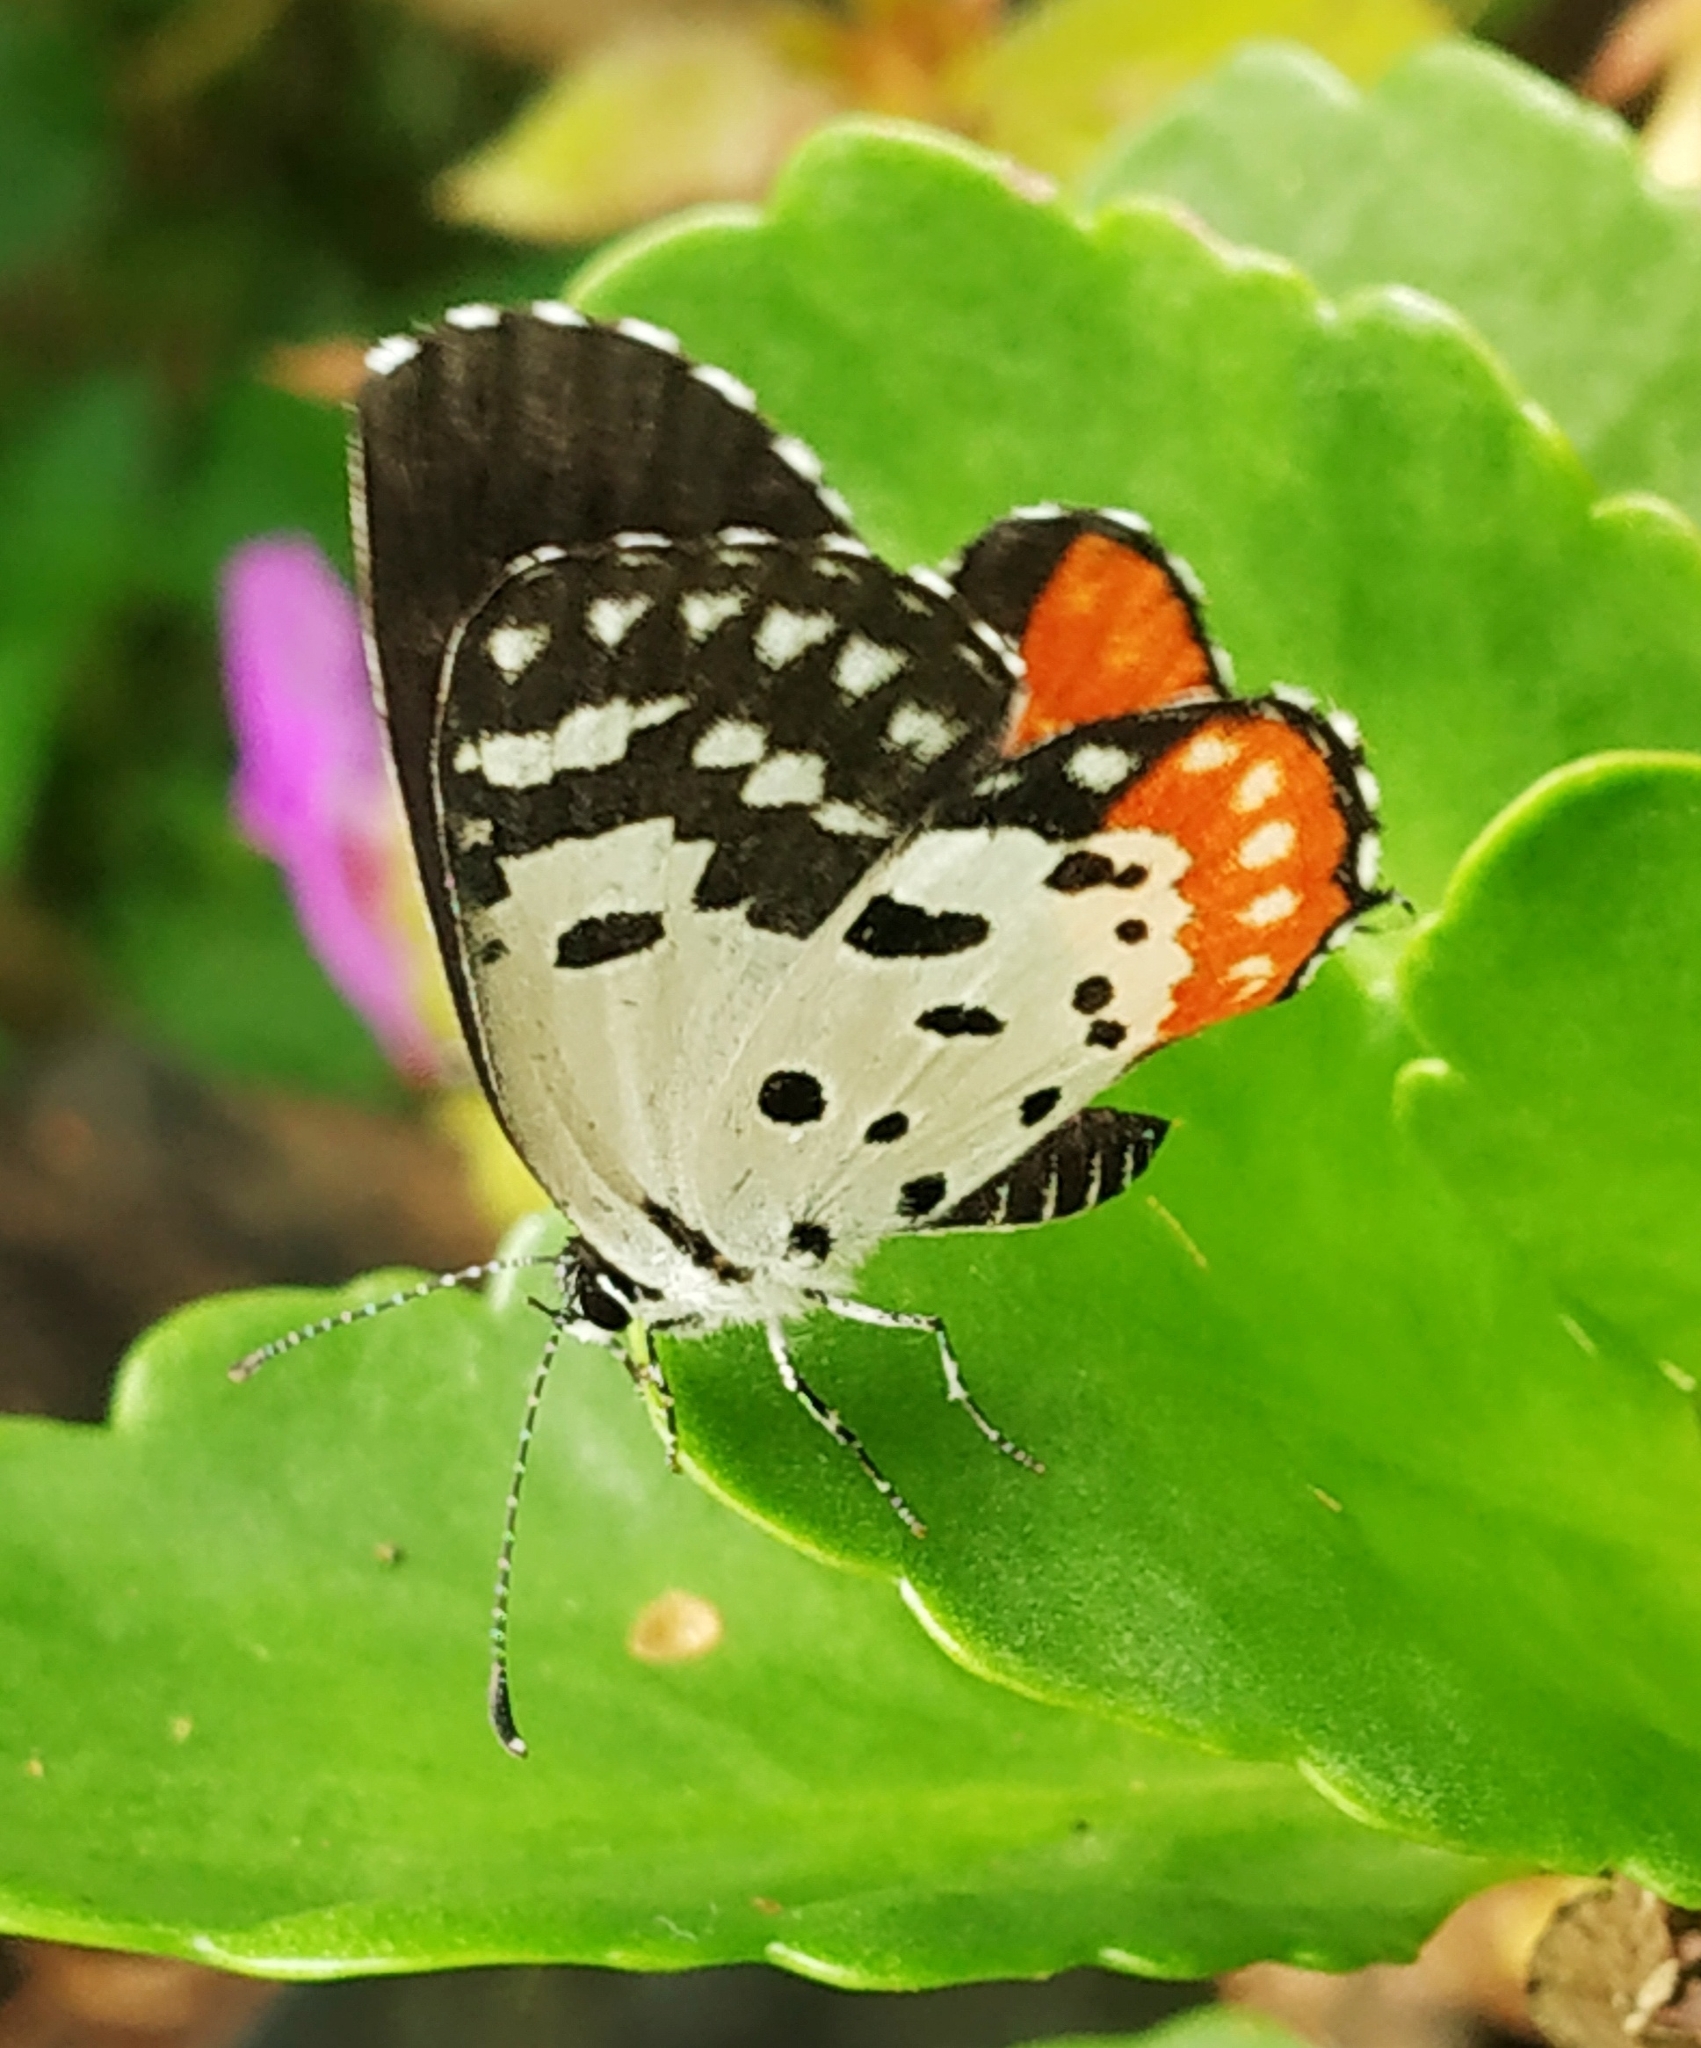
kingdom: Animalia
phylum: Arthropoda
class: Insecta
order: Lepidoptera
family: Lycaenidae
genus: Talicada
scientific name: Talicada nyseus
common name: Red pierrot
